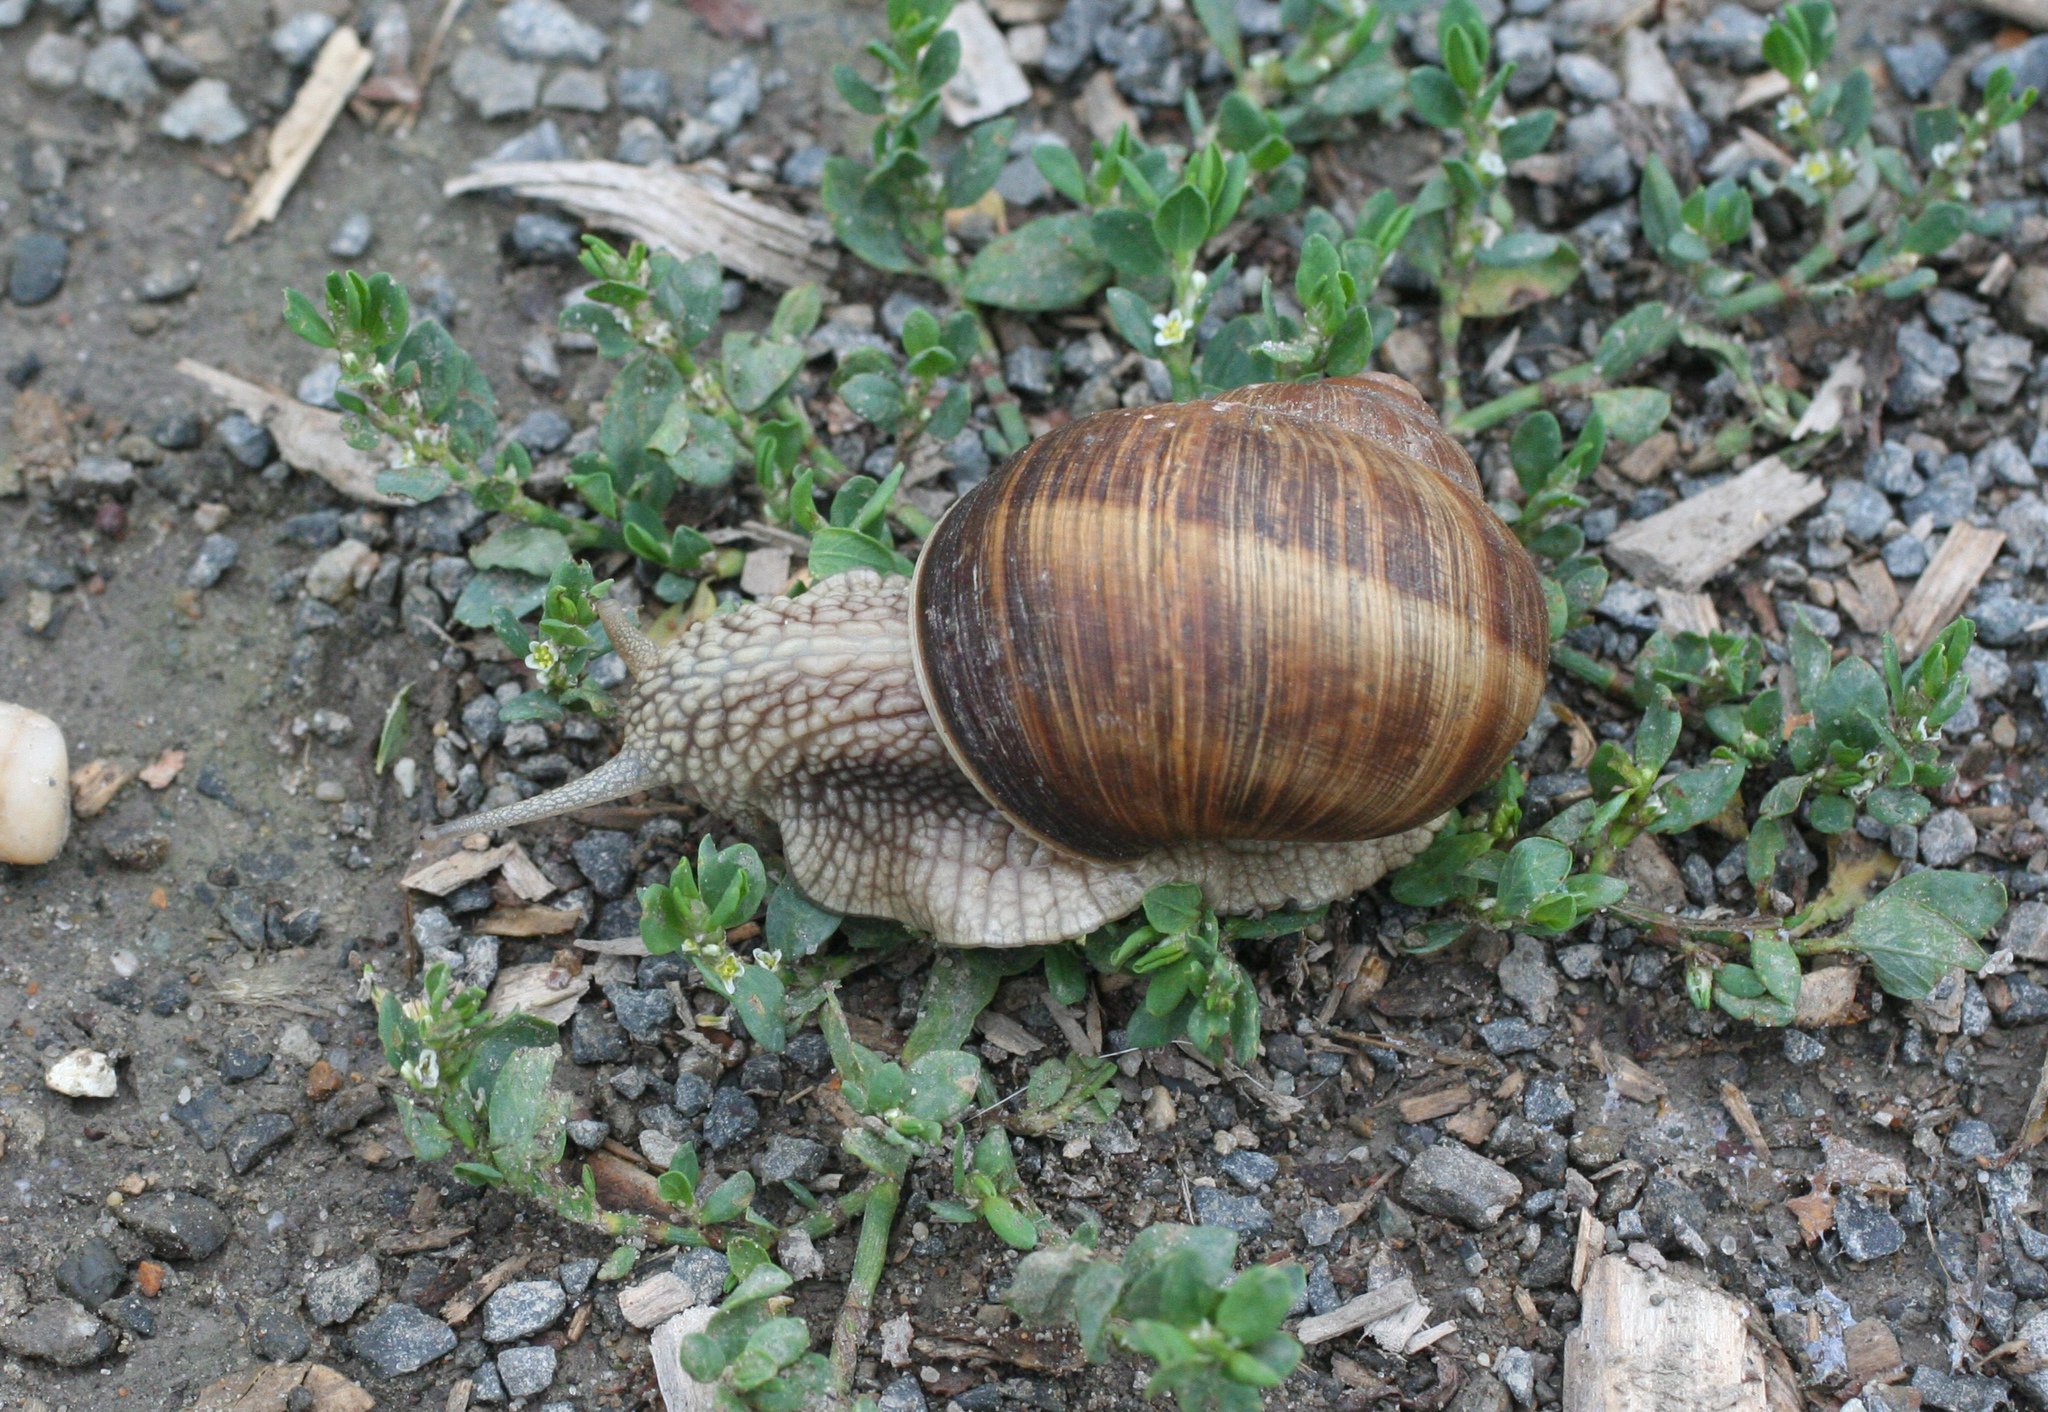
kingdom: Animalia
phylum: Mollusca
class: Gastropoda
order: Stylommatophora
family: Helicidae
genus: Helix
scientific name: Helix pomatia
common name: Roman snail
